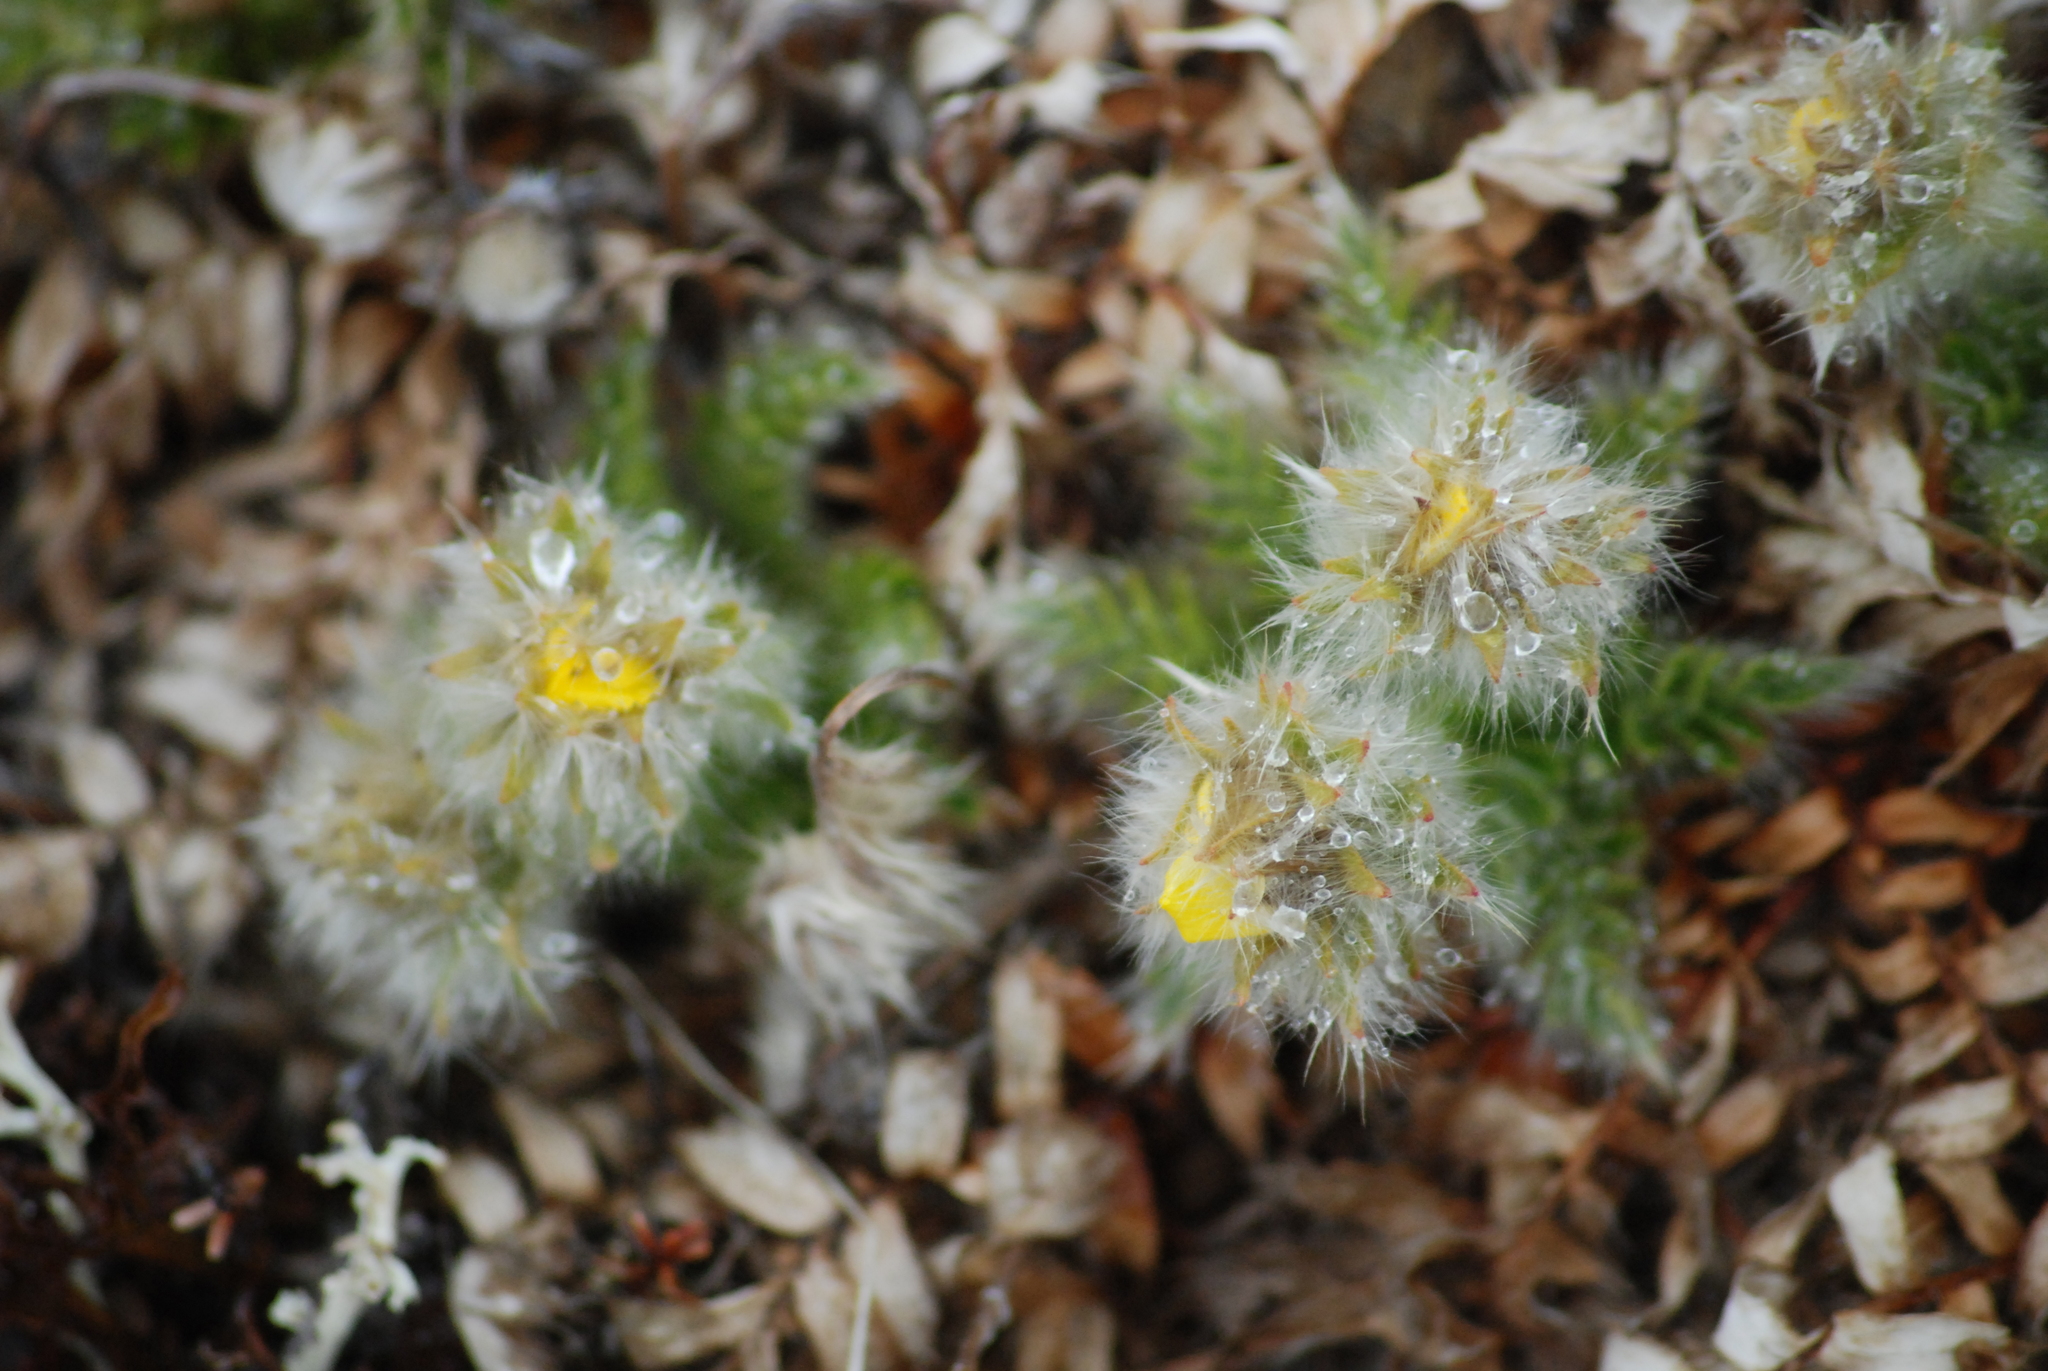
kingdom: Plantae
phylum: Tracheophyta
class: Magnoliopsida
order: Rosales
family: Rosaceae
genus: Geum
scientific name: Geum glaciale
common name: Glacier avens
